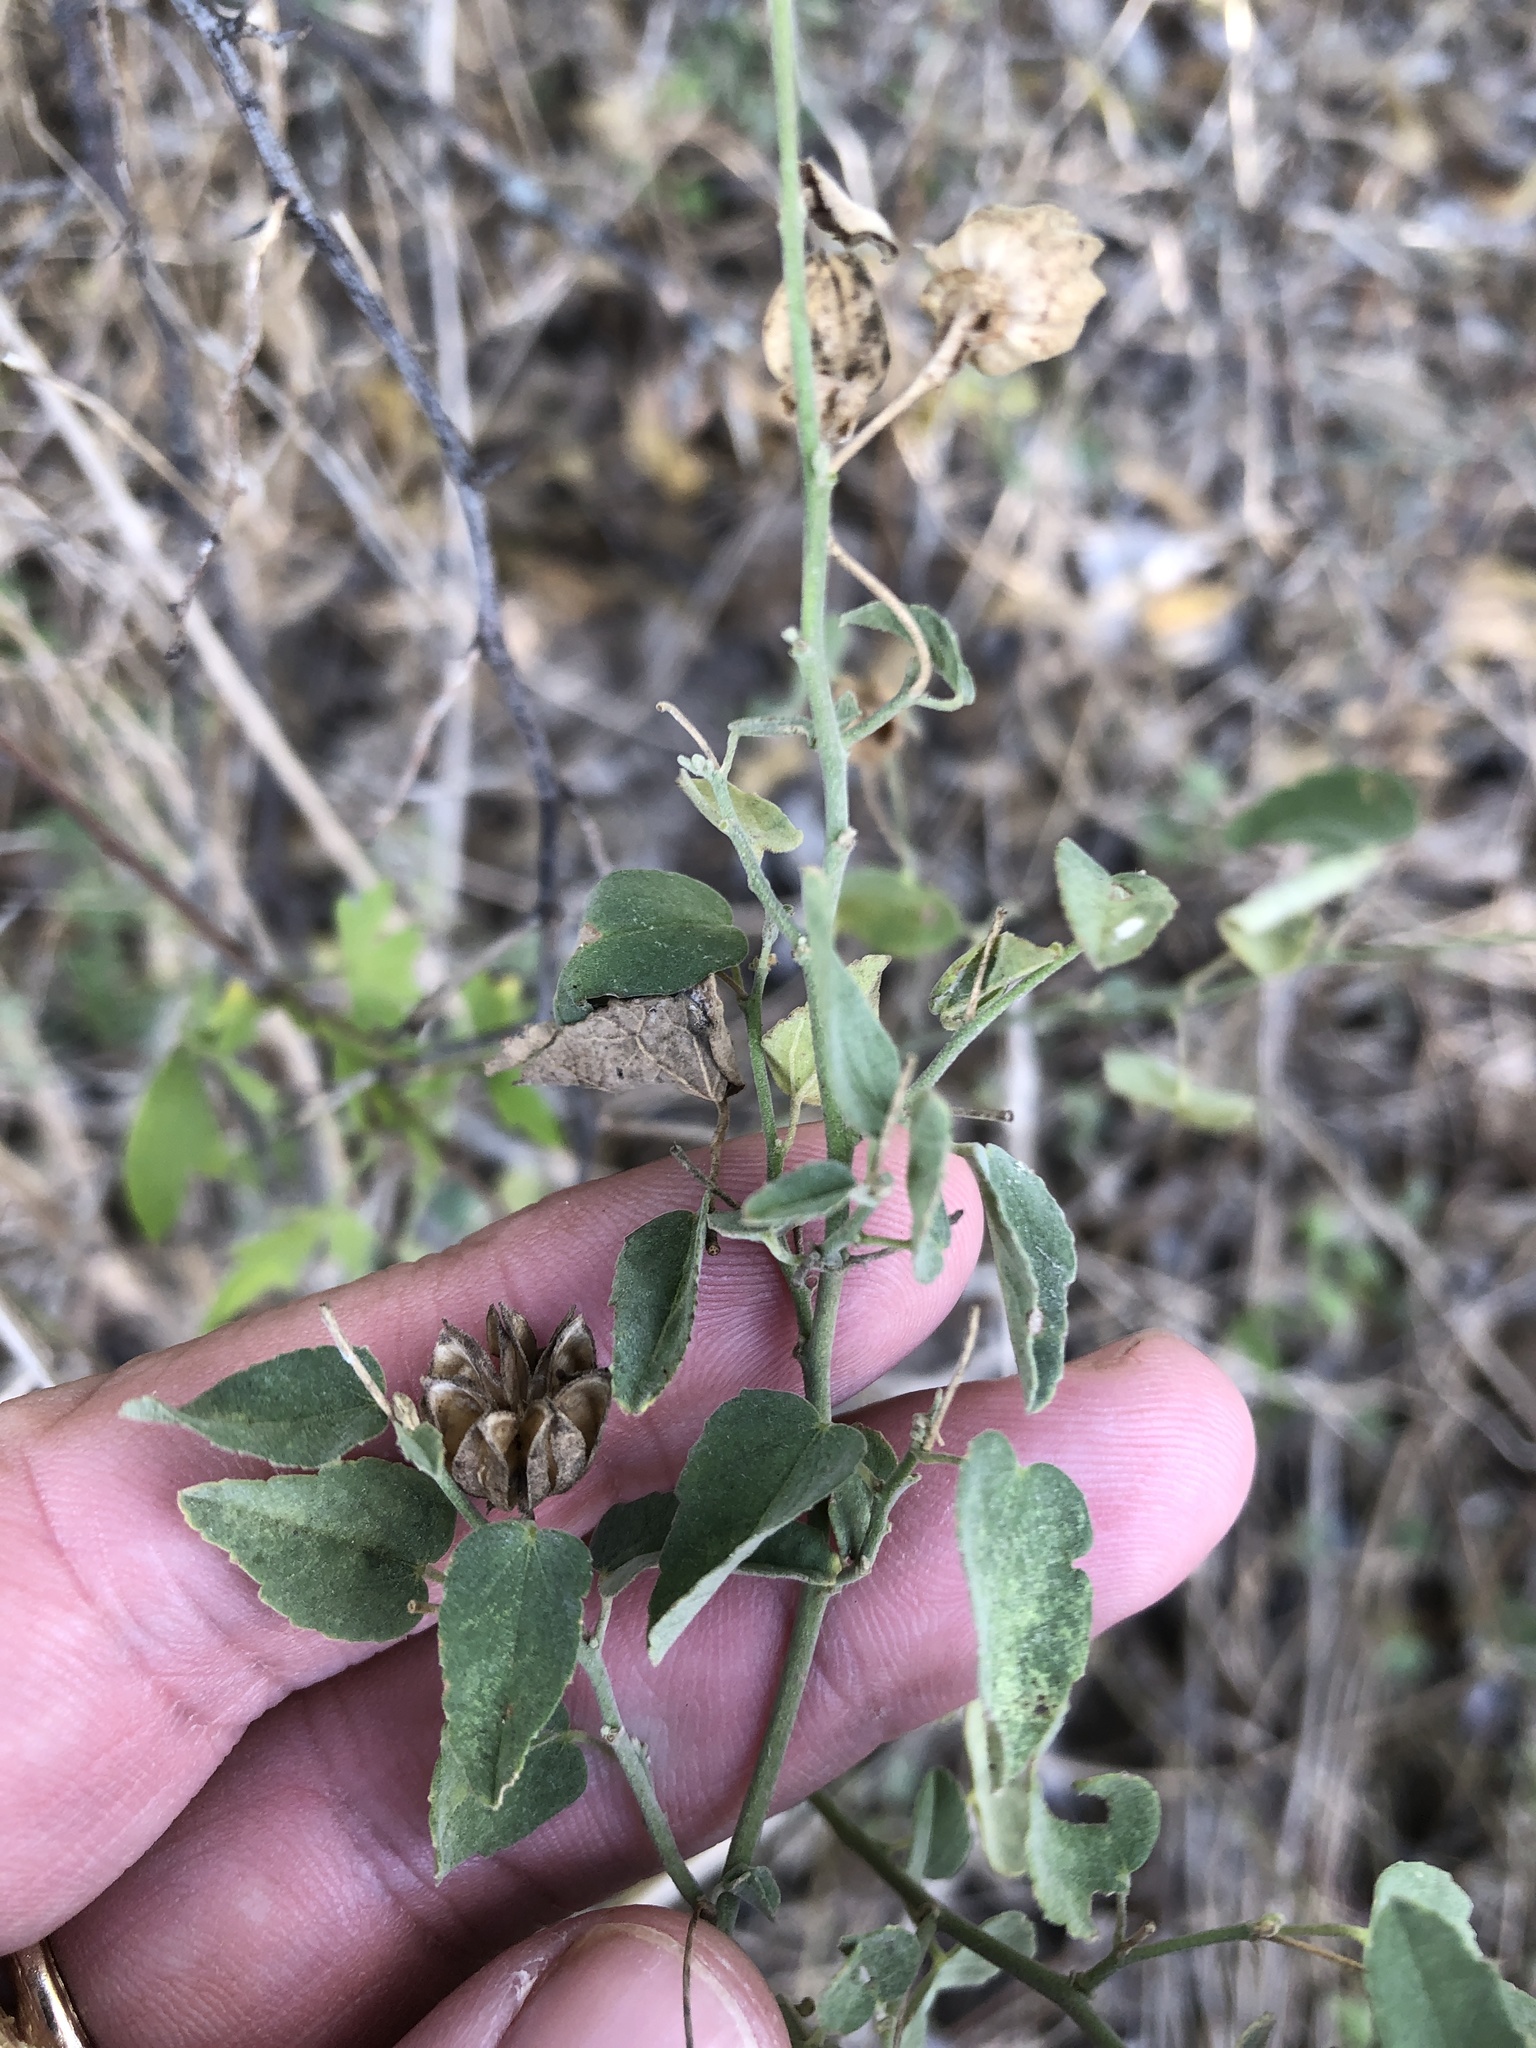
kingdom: Plantae
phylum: Tracheophyta
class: Magnoliopsida
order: Malvales
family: Malvaceae
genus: Abutilon
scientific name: Abutilon fruticosum
